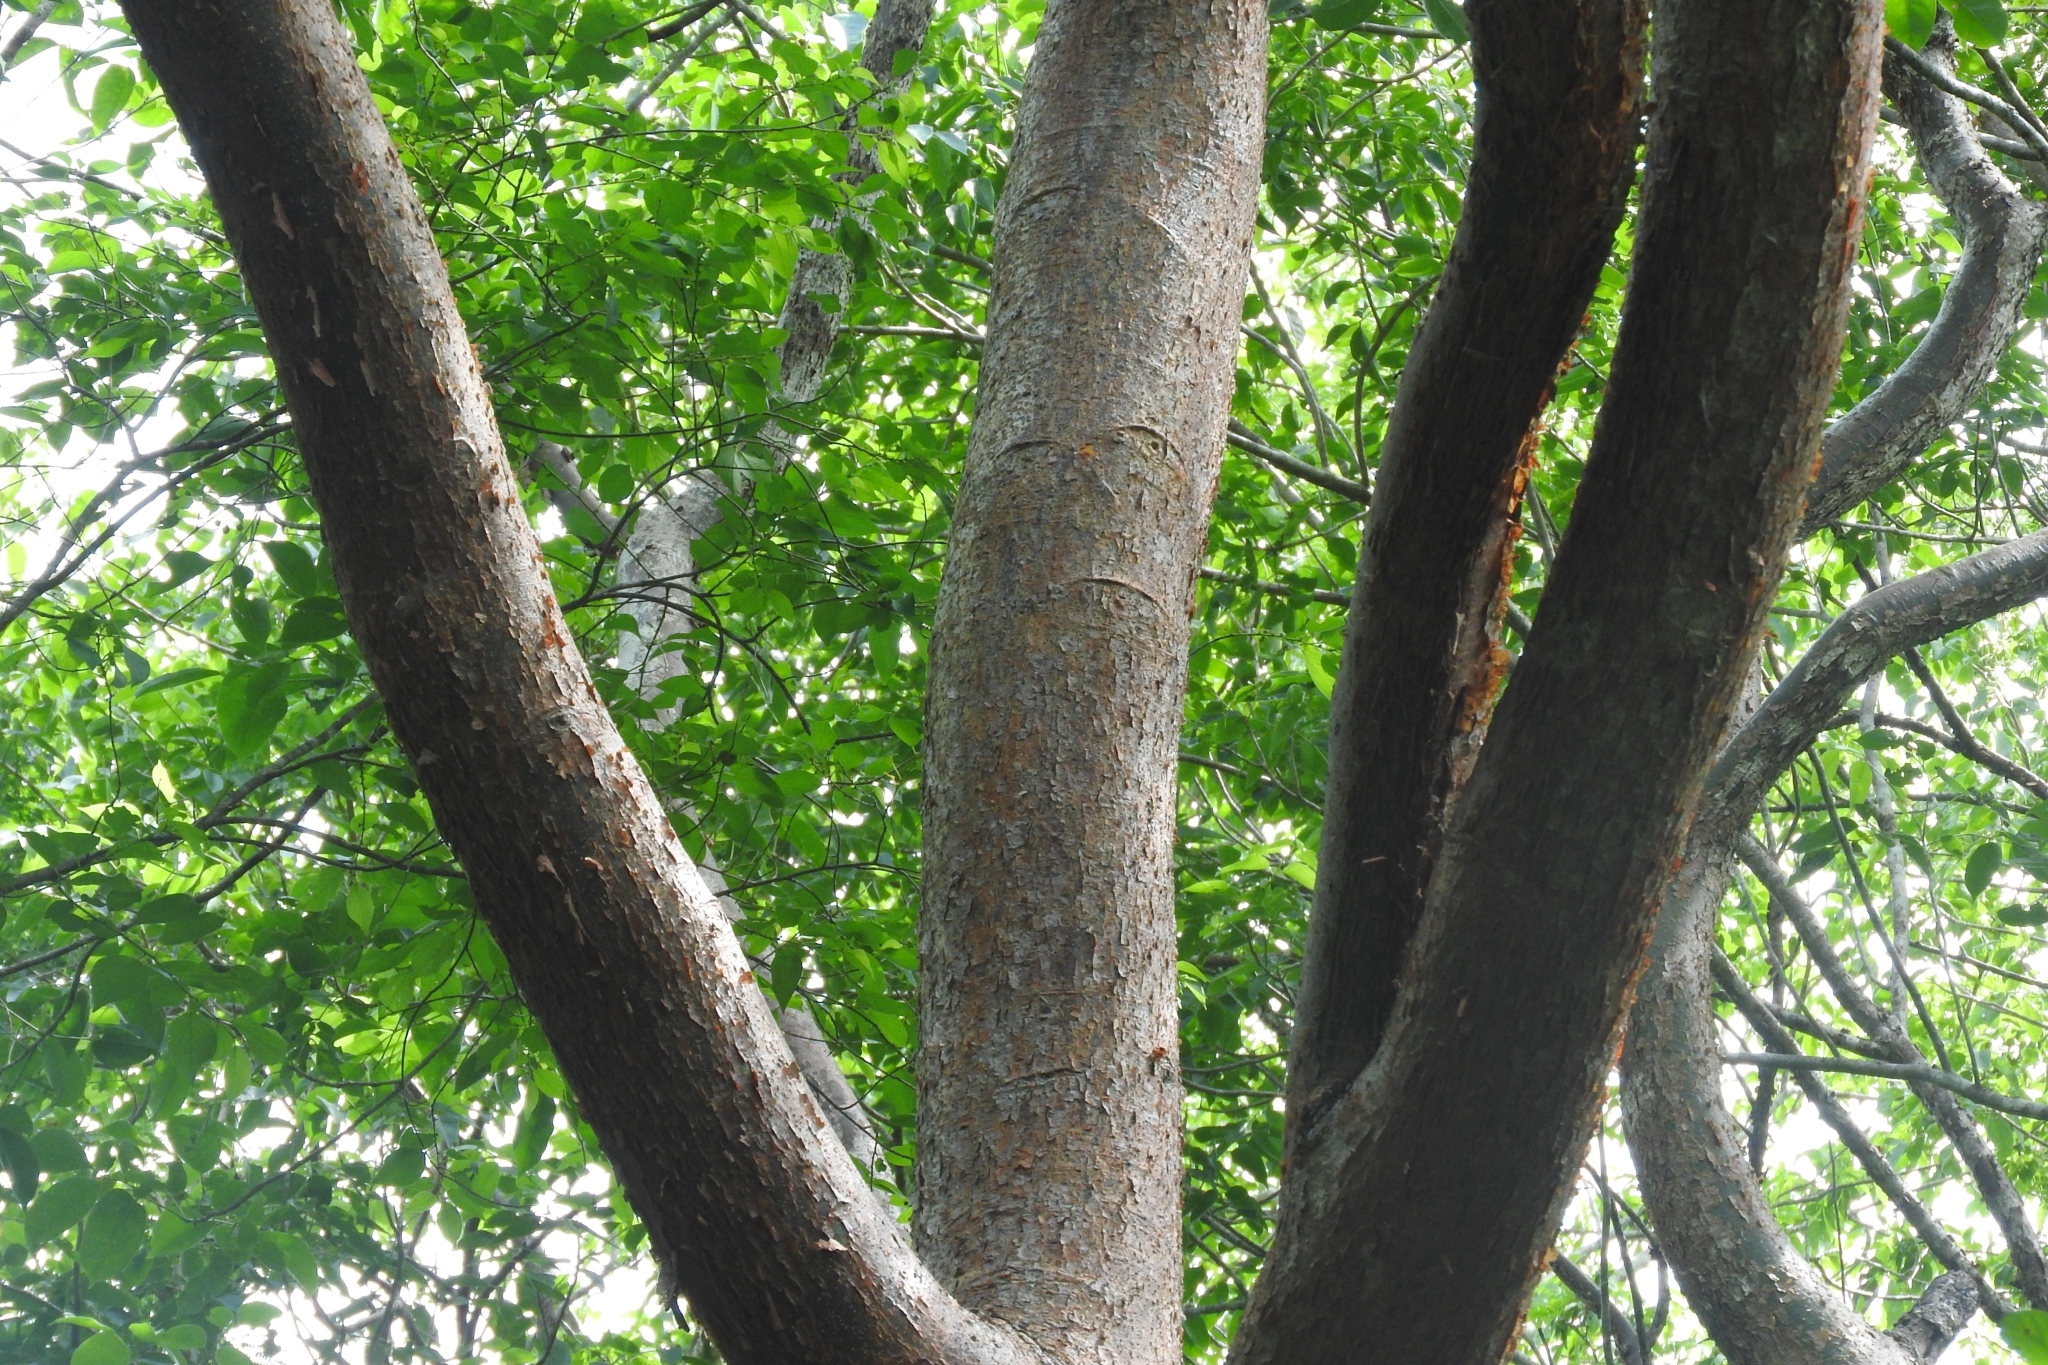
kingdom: Plantae
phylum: Tracheophyta
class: Magnoliopsida
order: Sapindales
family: Burseraceae
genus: Bursera
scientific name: Bursera simaruba
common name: Turpentine tree
